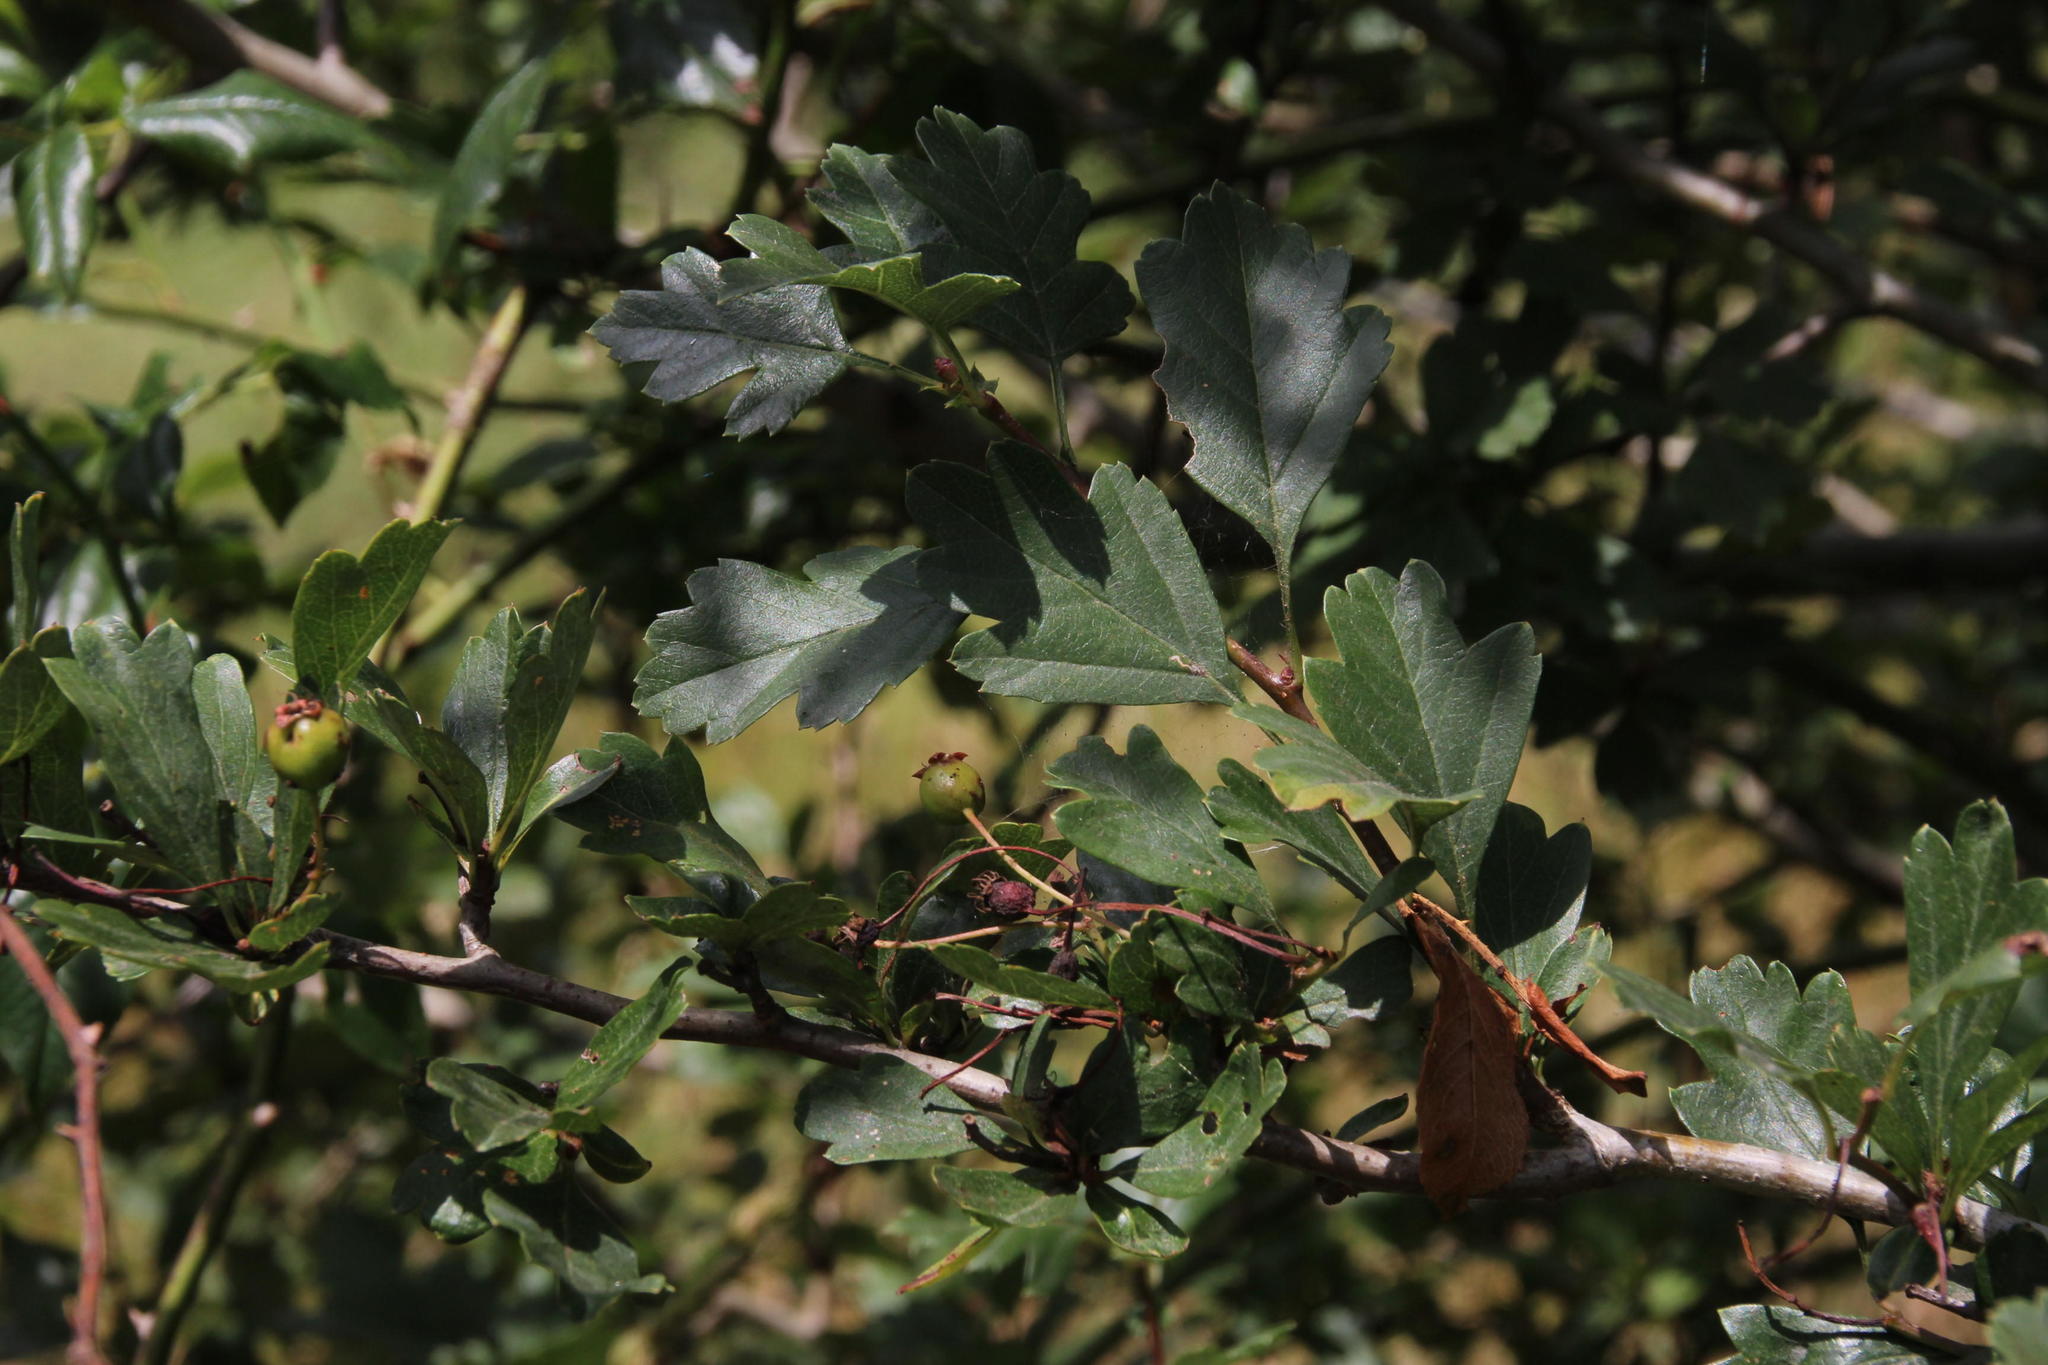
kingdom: Plantae
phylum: Tracheophyta
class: Magnoliopsida
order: Rosales
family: Rosaceae
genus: Crataegus
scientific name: Crataegus monogyna
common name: Hawthorn
